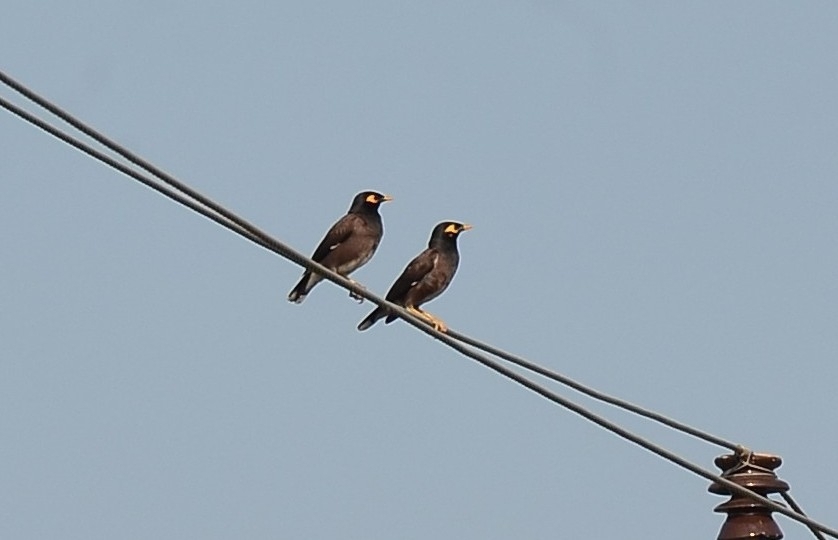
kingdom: Animalia
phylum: Chordata
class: Aves
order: Passeriformes
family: Sturnidae
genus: Acridotheres
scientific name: Acridotheres tristis
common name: Common myna
